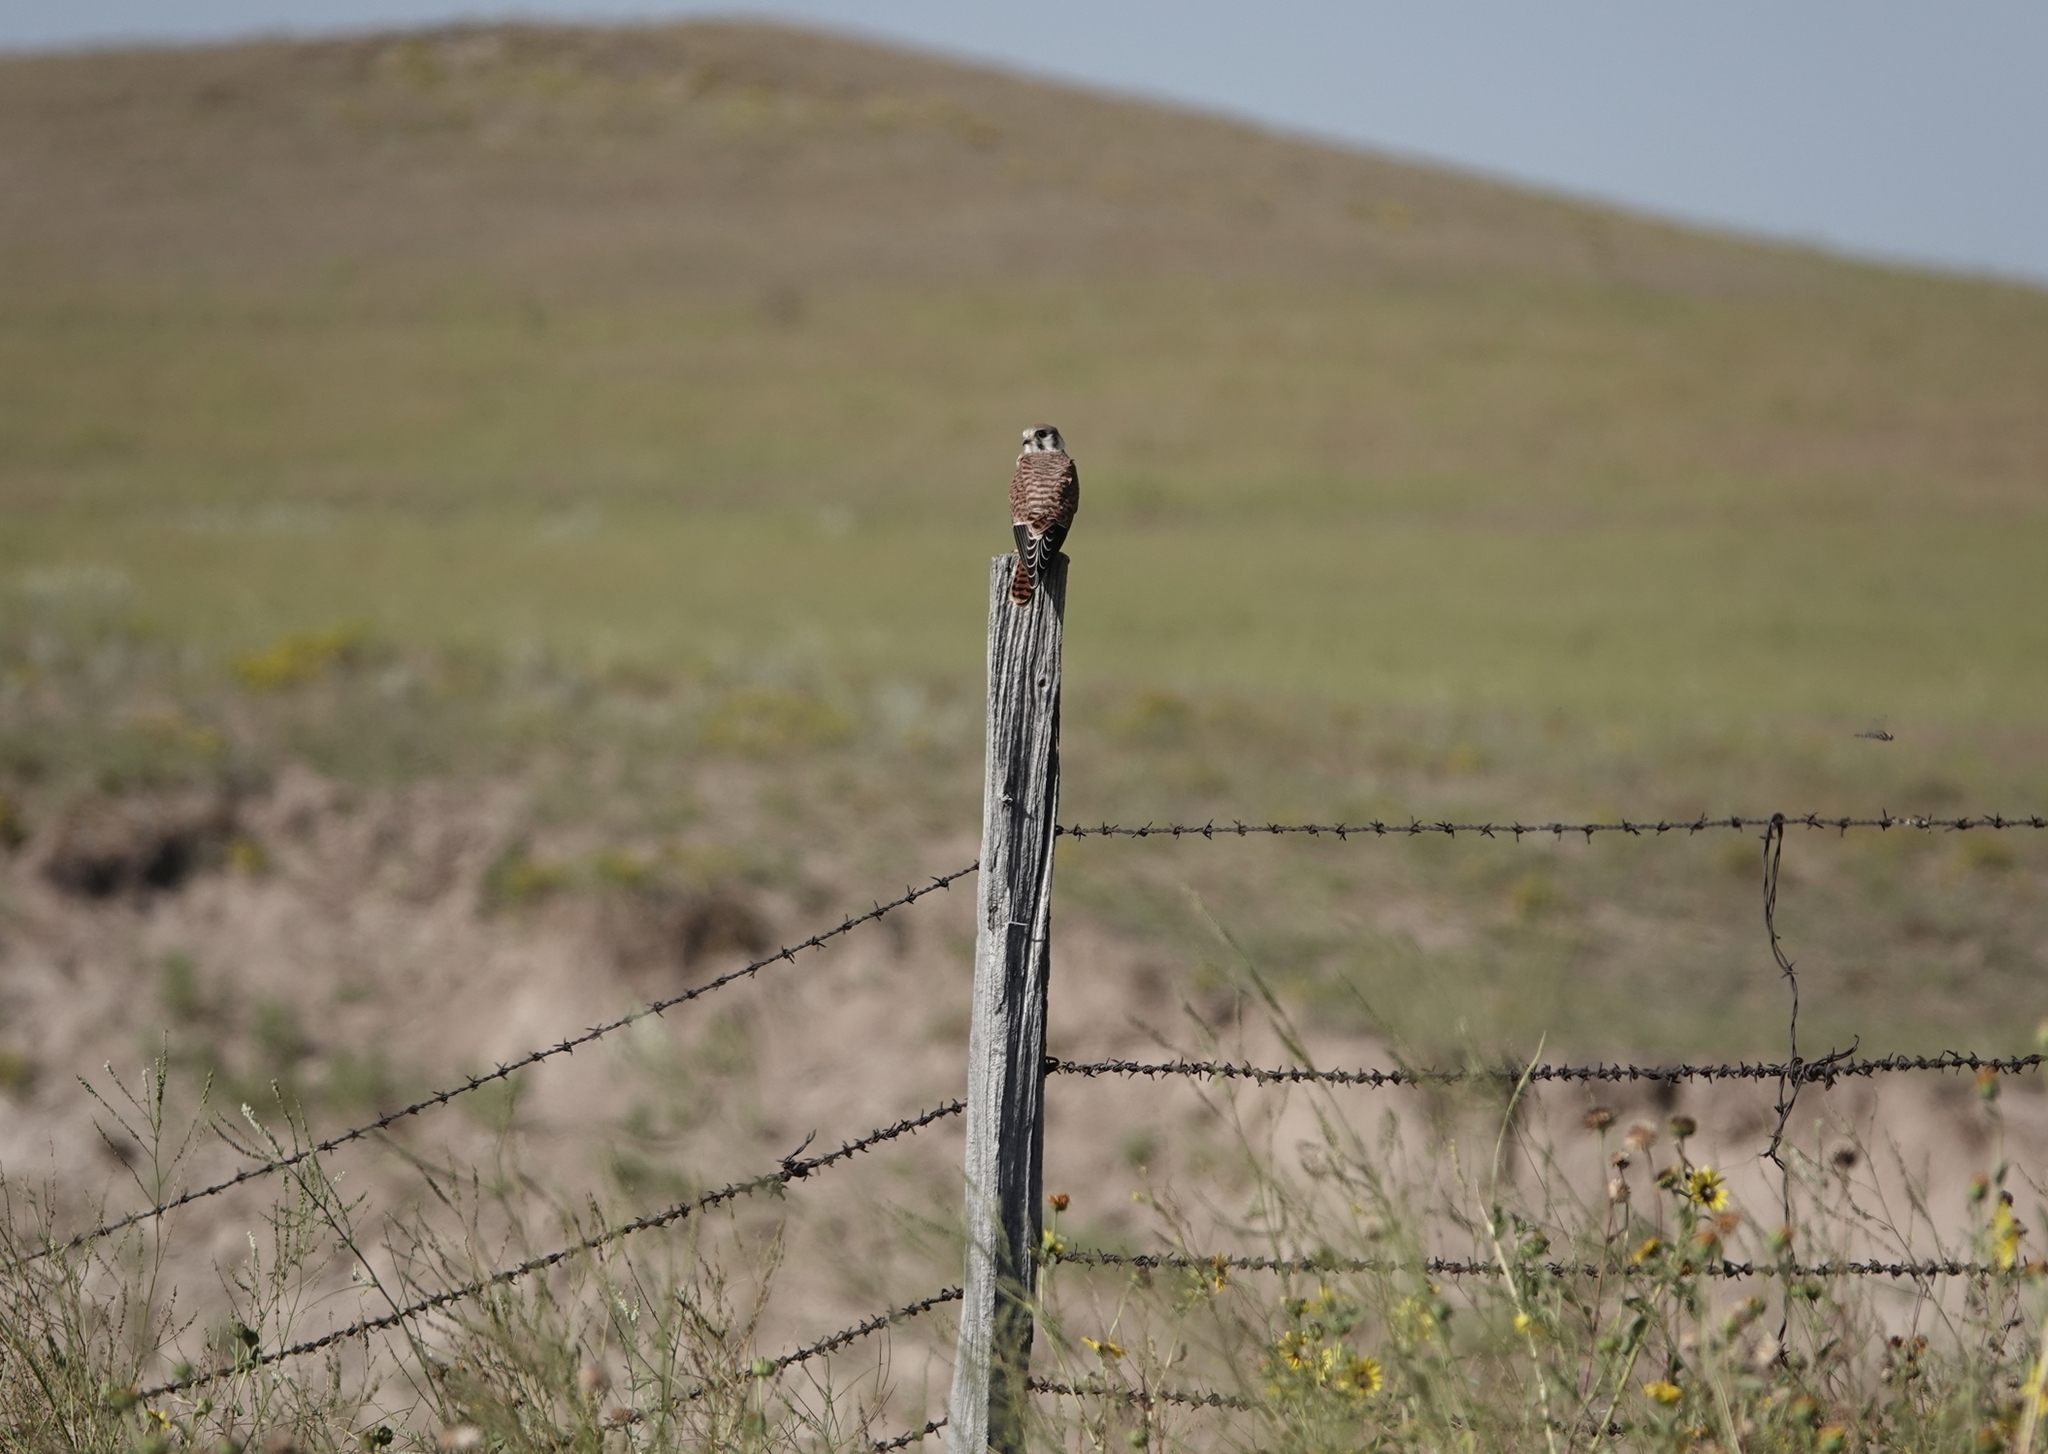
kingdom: Animalia
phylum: Chordata
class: Aves
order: Falconiformes
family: Falconidae
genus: Falco
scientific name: Falco sparverius
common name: American kestrel
